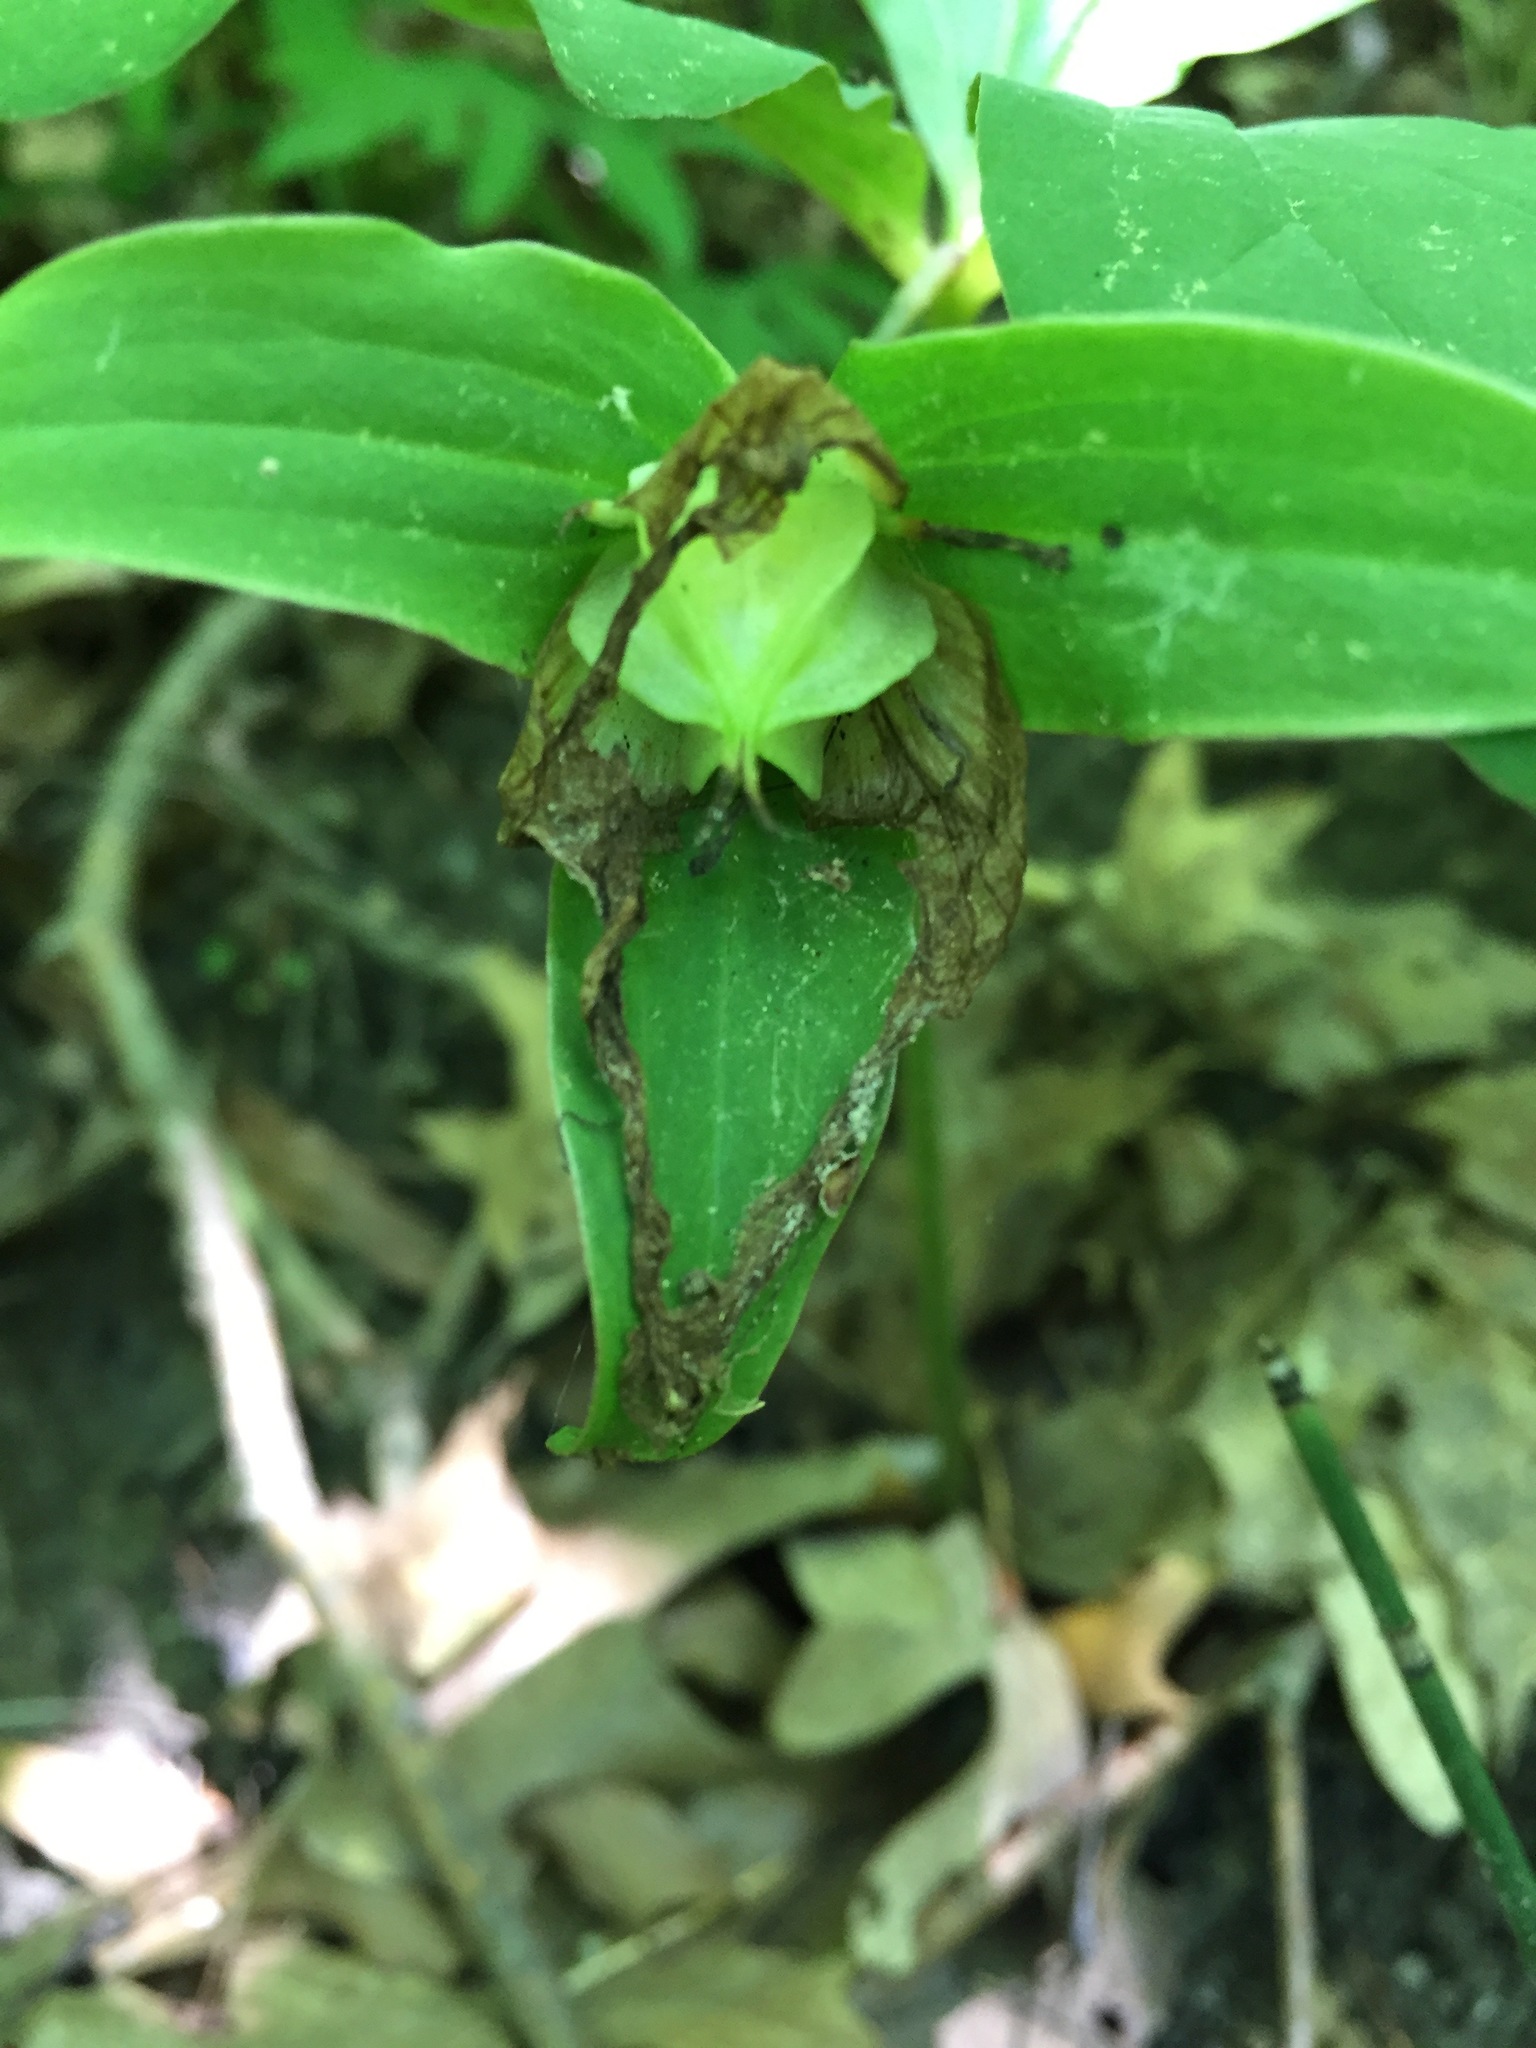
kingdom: Plantae
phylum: Tracheophyta
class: Liliopsida
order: Liliales
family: Melanthiaceae
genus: Trillium
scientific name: Trillium grandiflorum
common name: Great white trillium
